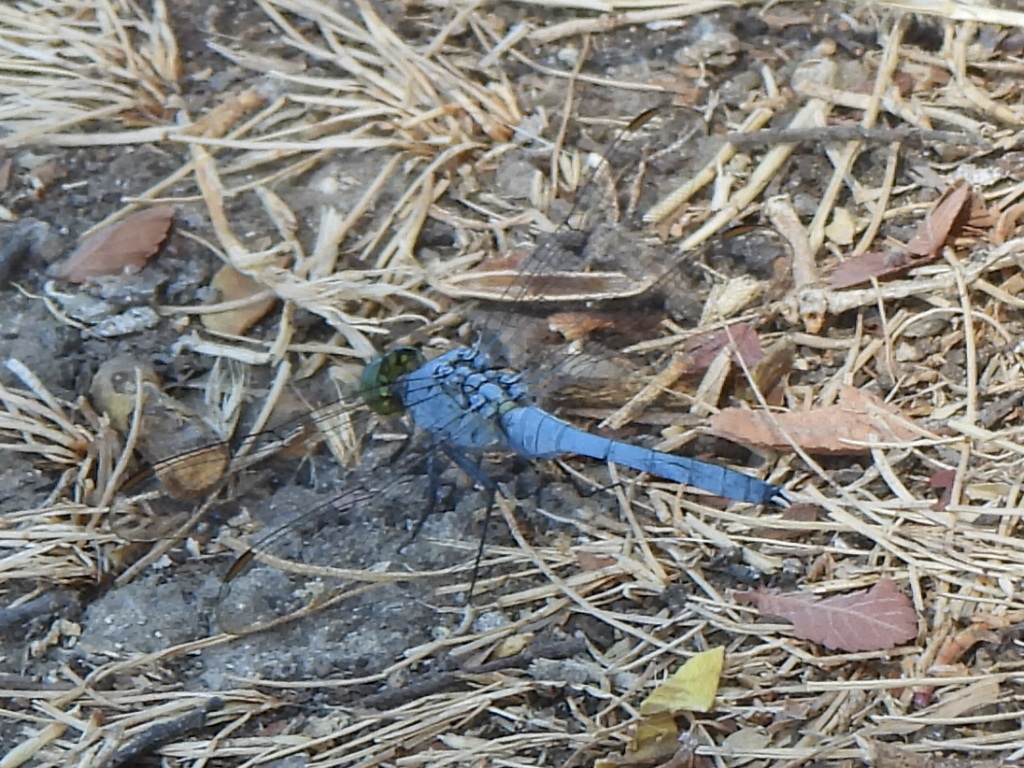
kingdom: Animalia
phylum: Arthropoda
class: Insecta
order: Odonata
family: Libellulidae
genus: Erythemis
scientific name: Erythemis simplicicollis
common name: Eastern pondhawk
